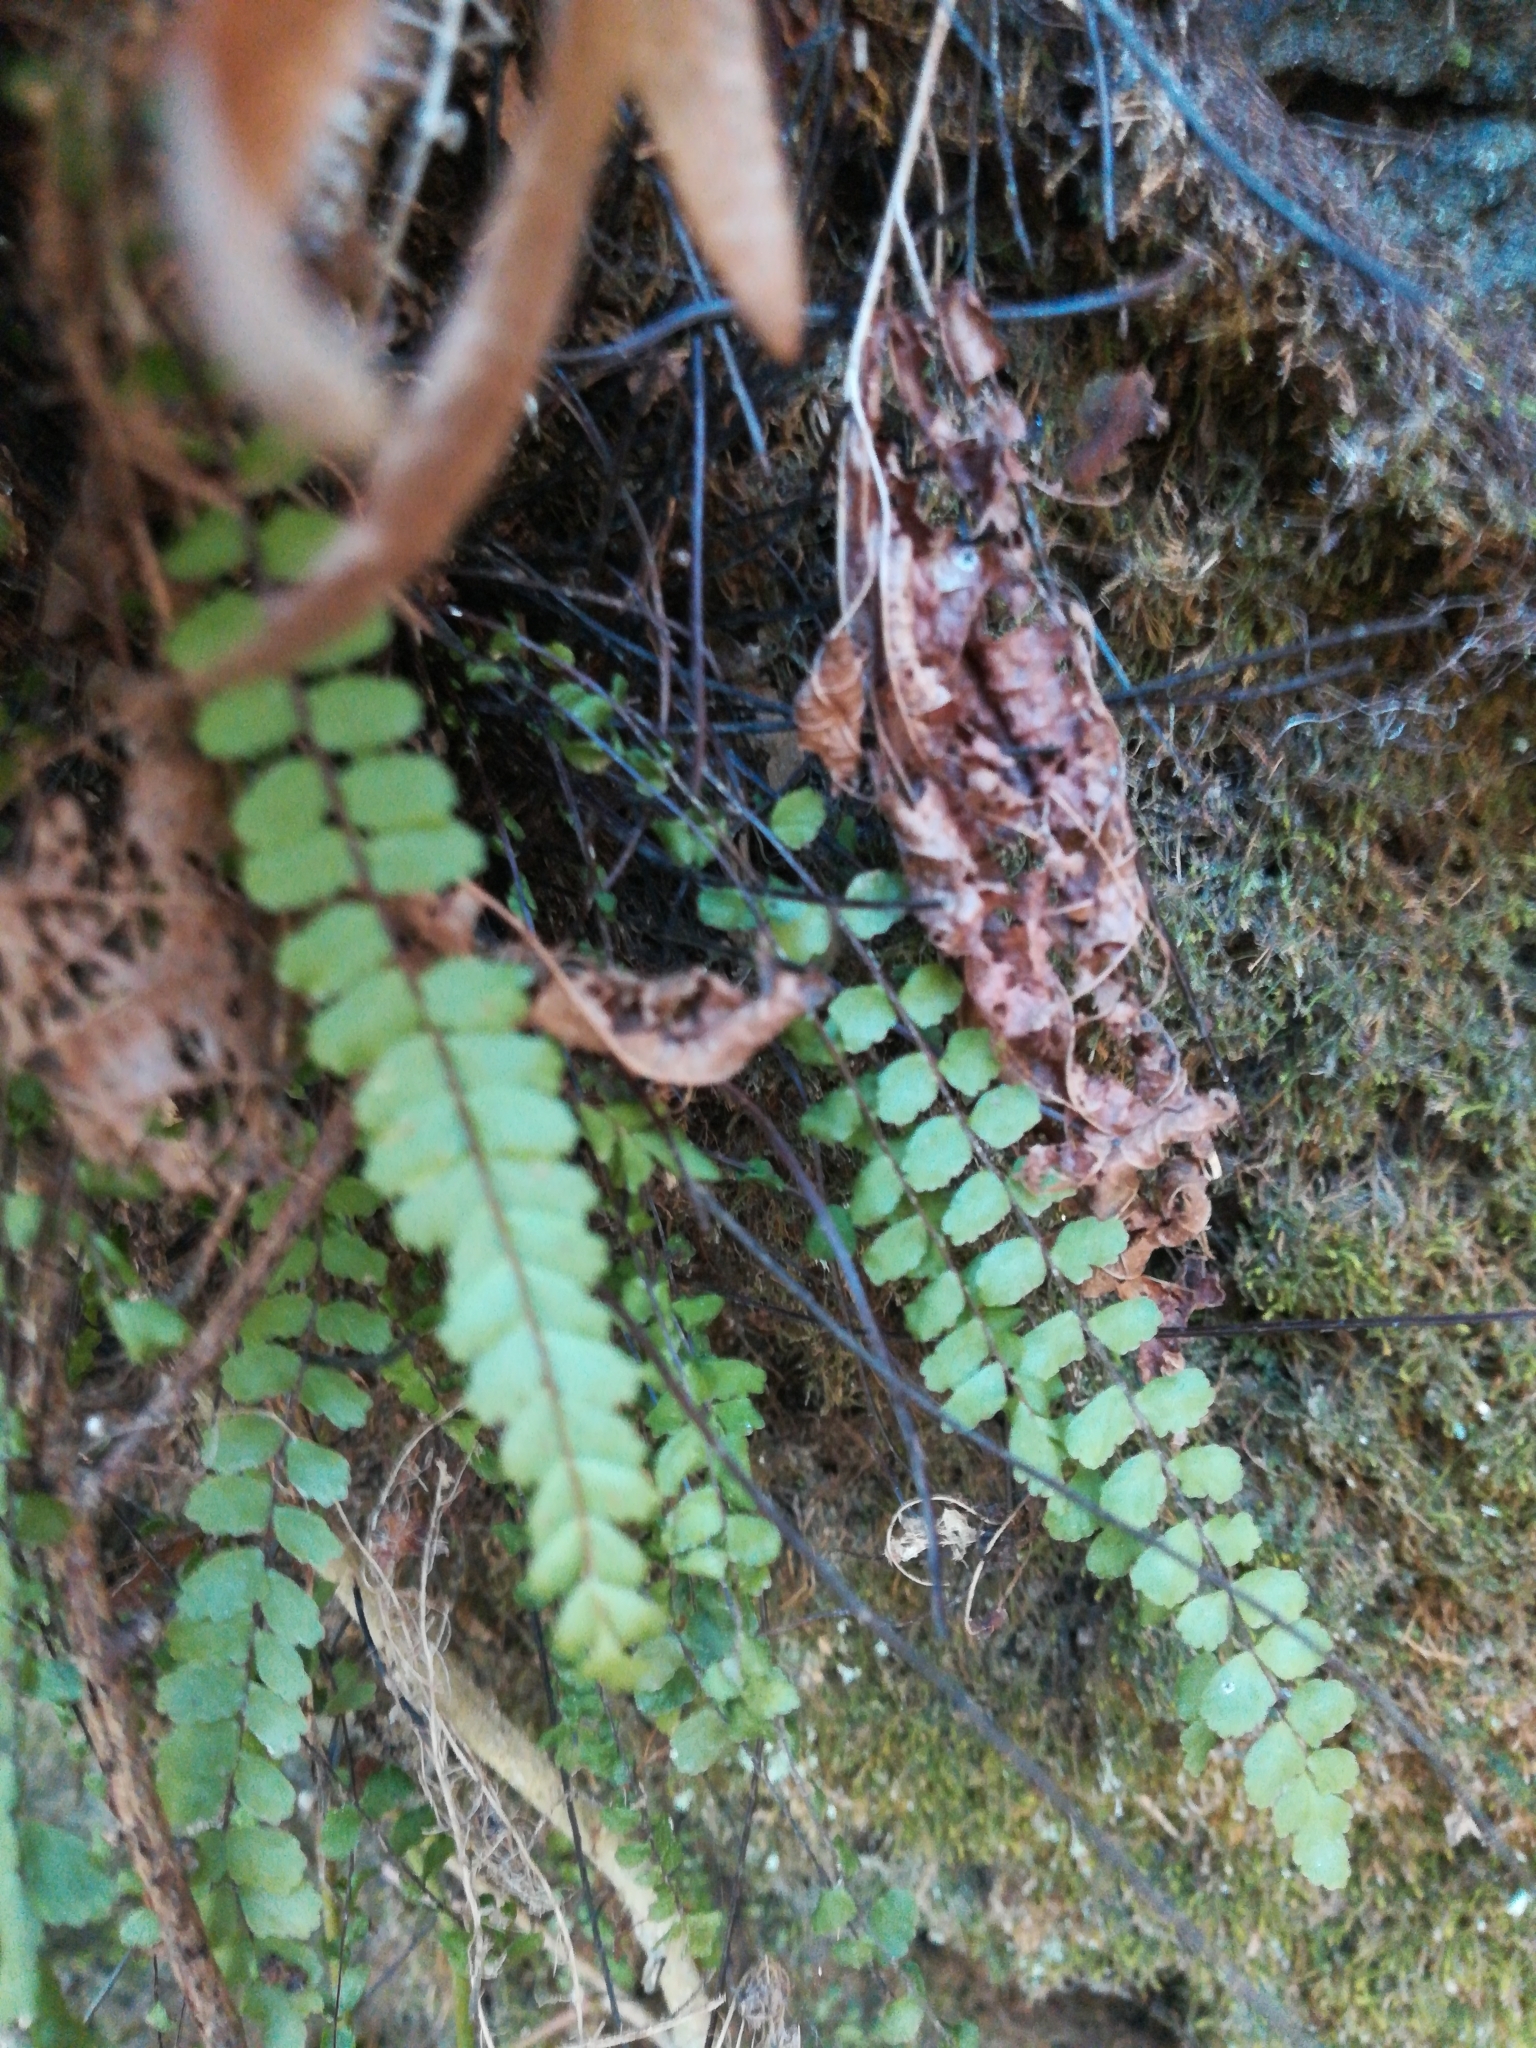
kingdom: Plantae
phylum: Tracheophyta
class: Polypodiopsida
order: Polypodiales
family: Aspleniaceae
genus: Asplenium
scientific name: Asplenium trichomanes
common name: Maidenhair spleenwort
